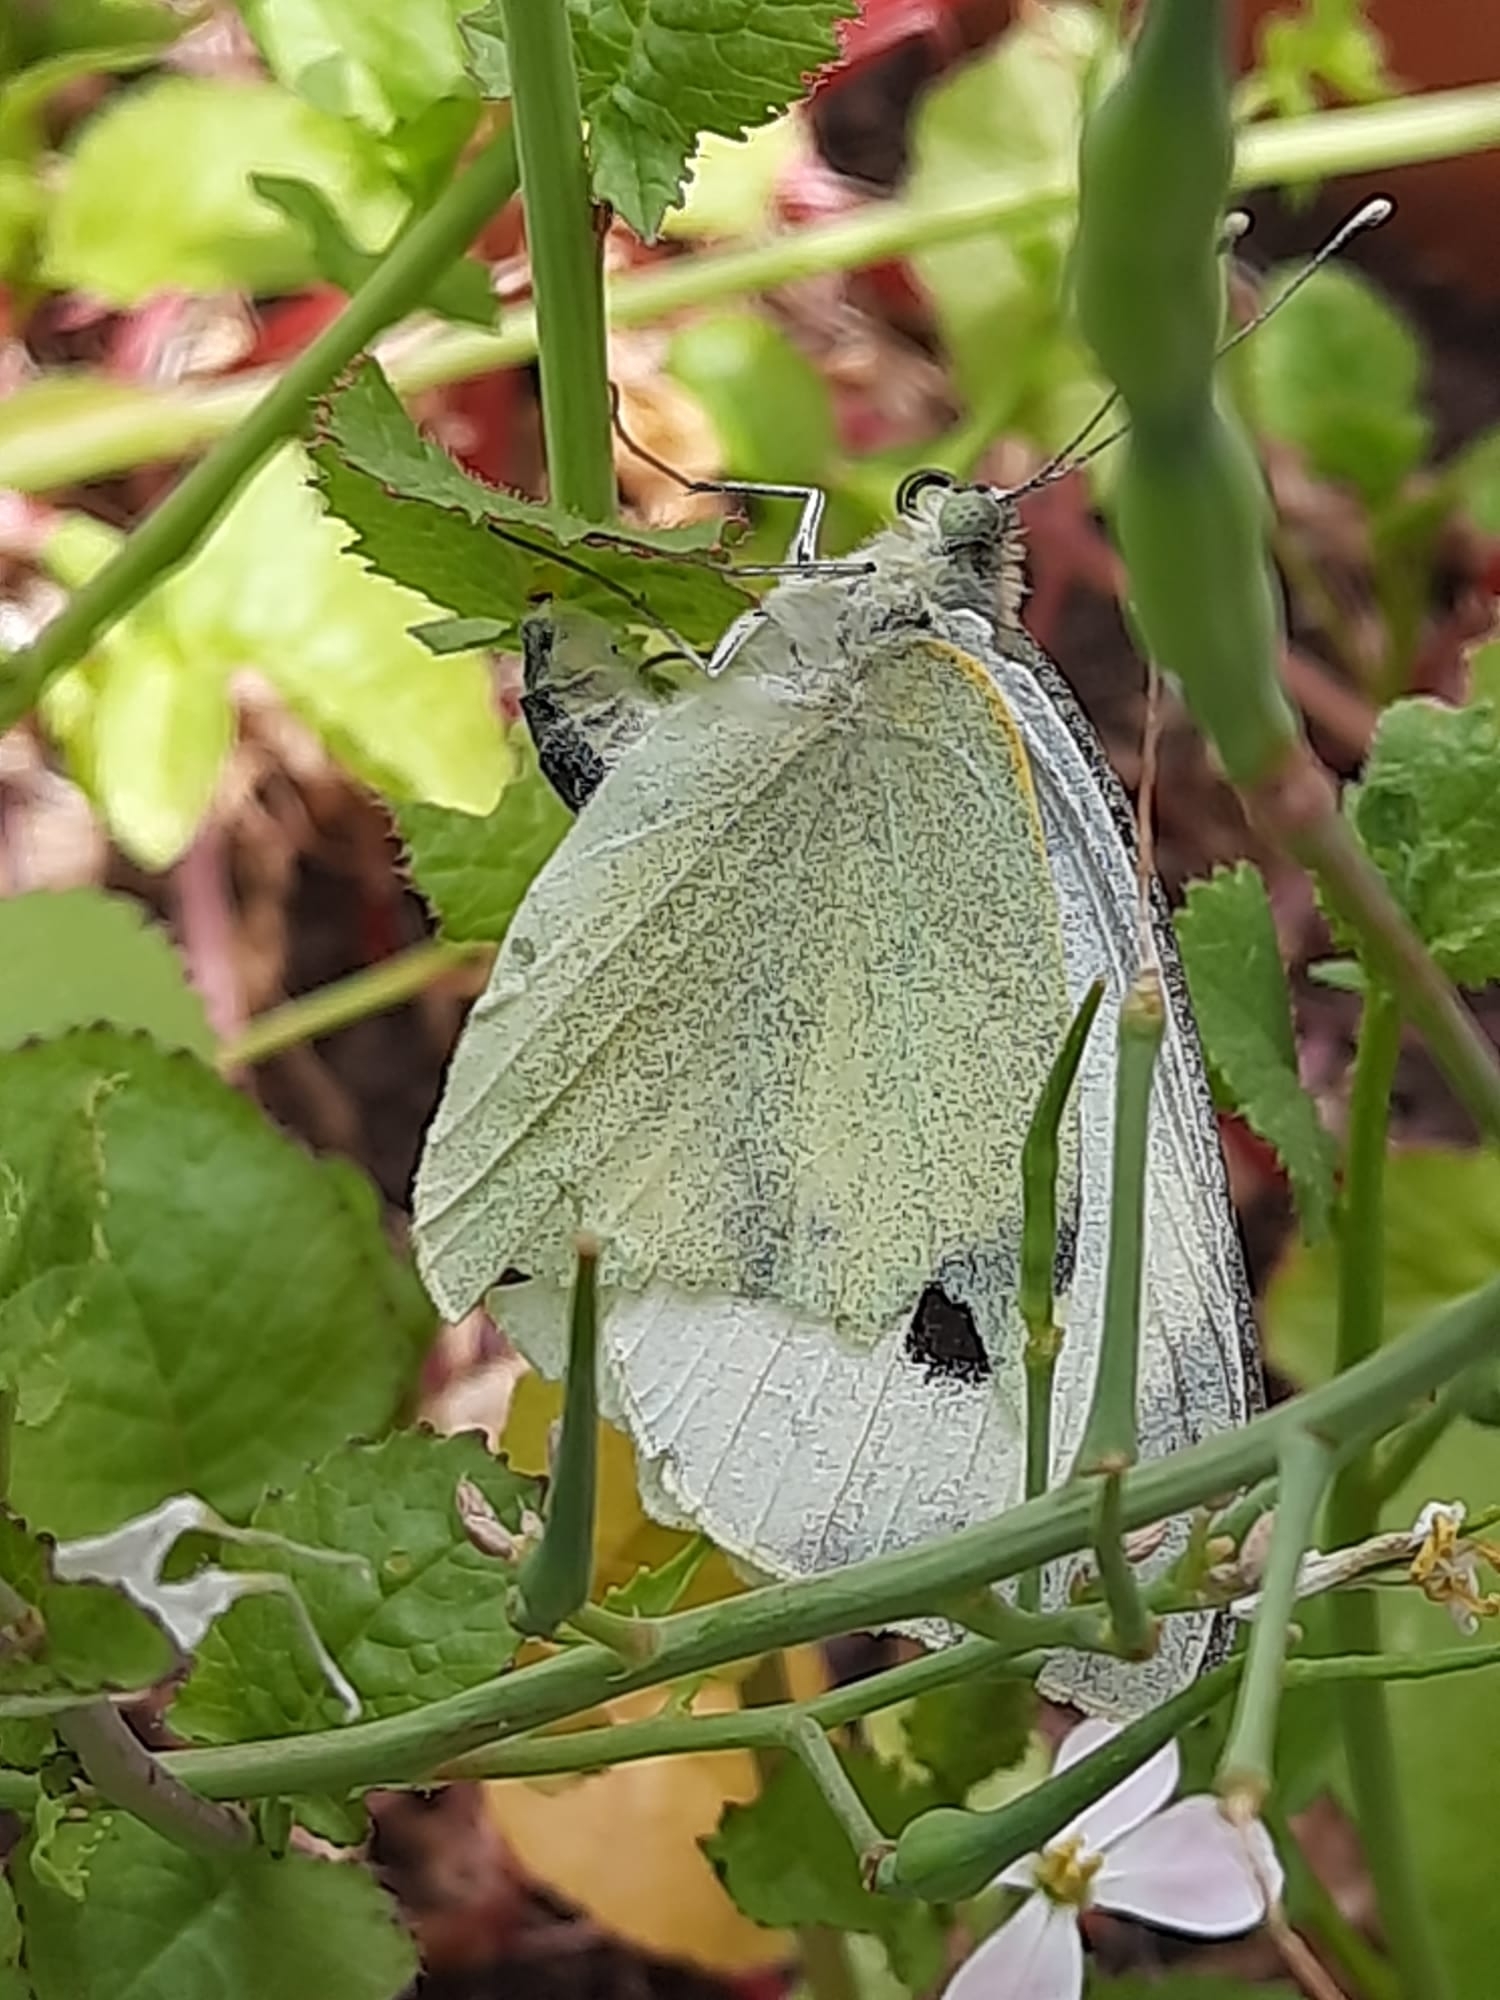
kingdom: Animalia
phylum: Arthropoda
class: Insecta
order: Lepidoptera
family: Pieridae
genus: Pieris
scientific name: Pieris brassicae
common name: Large white
